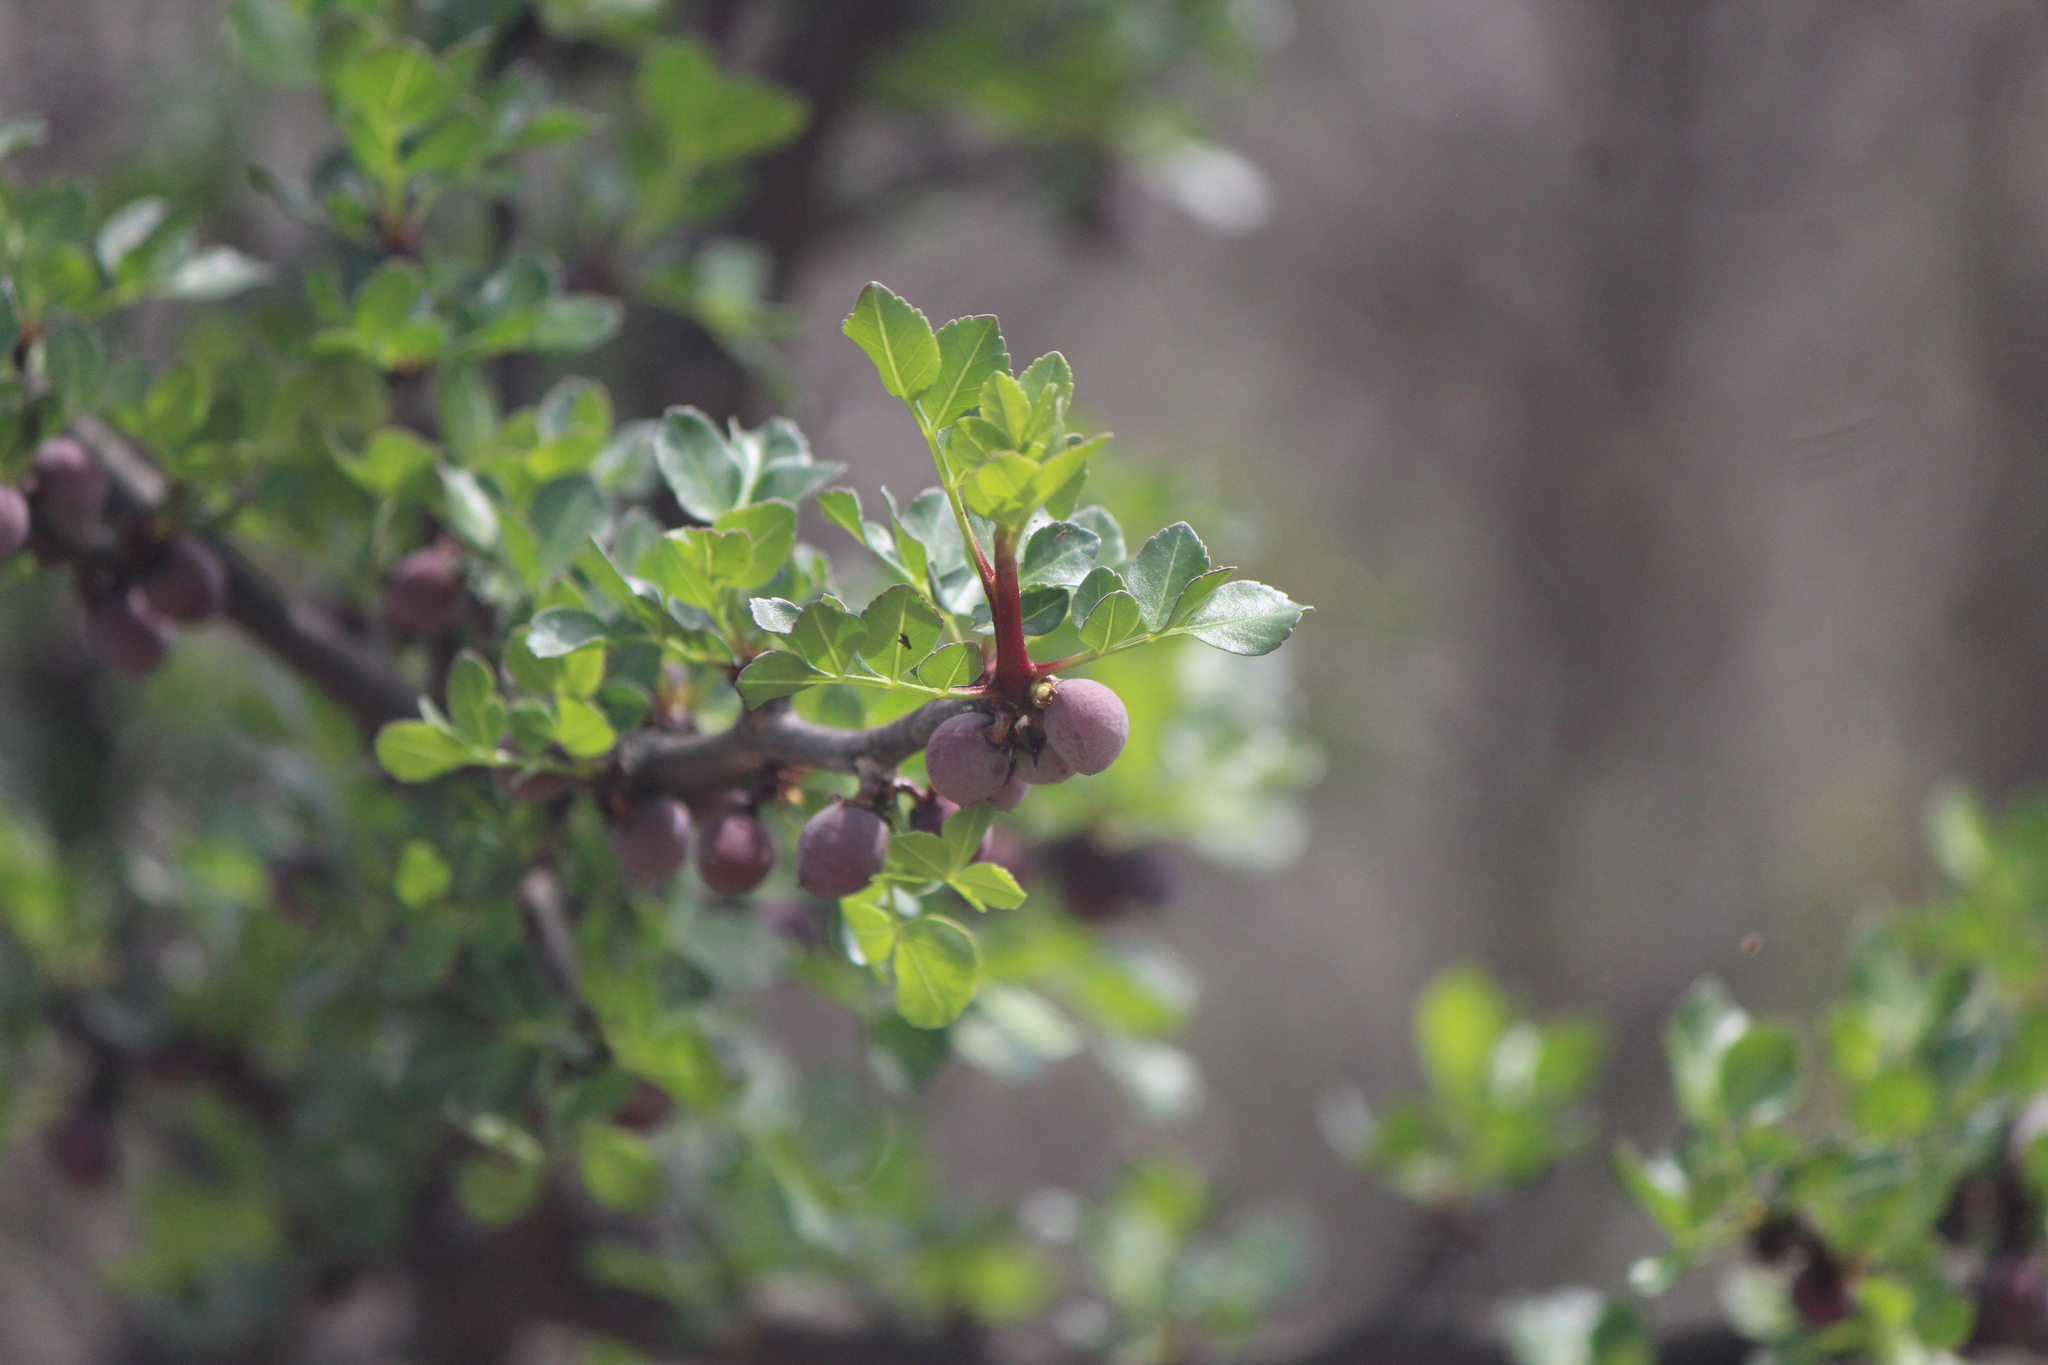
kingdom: Plantae
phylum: Tracheophyta
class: Magnoliopsida
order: Sapindales
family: Burseraceae
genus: Bursera
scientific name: Bursera fagaroides
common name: Elephant tree
